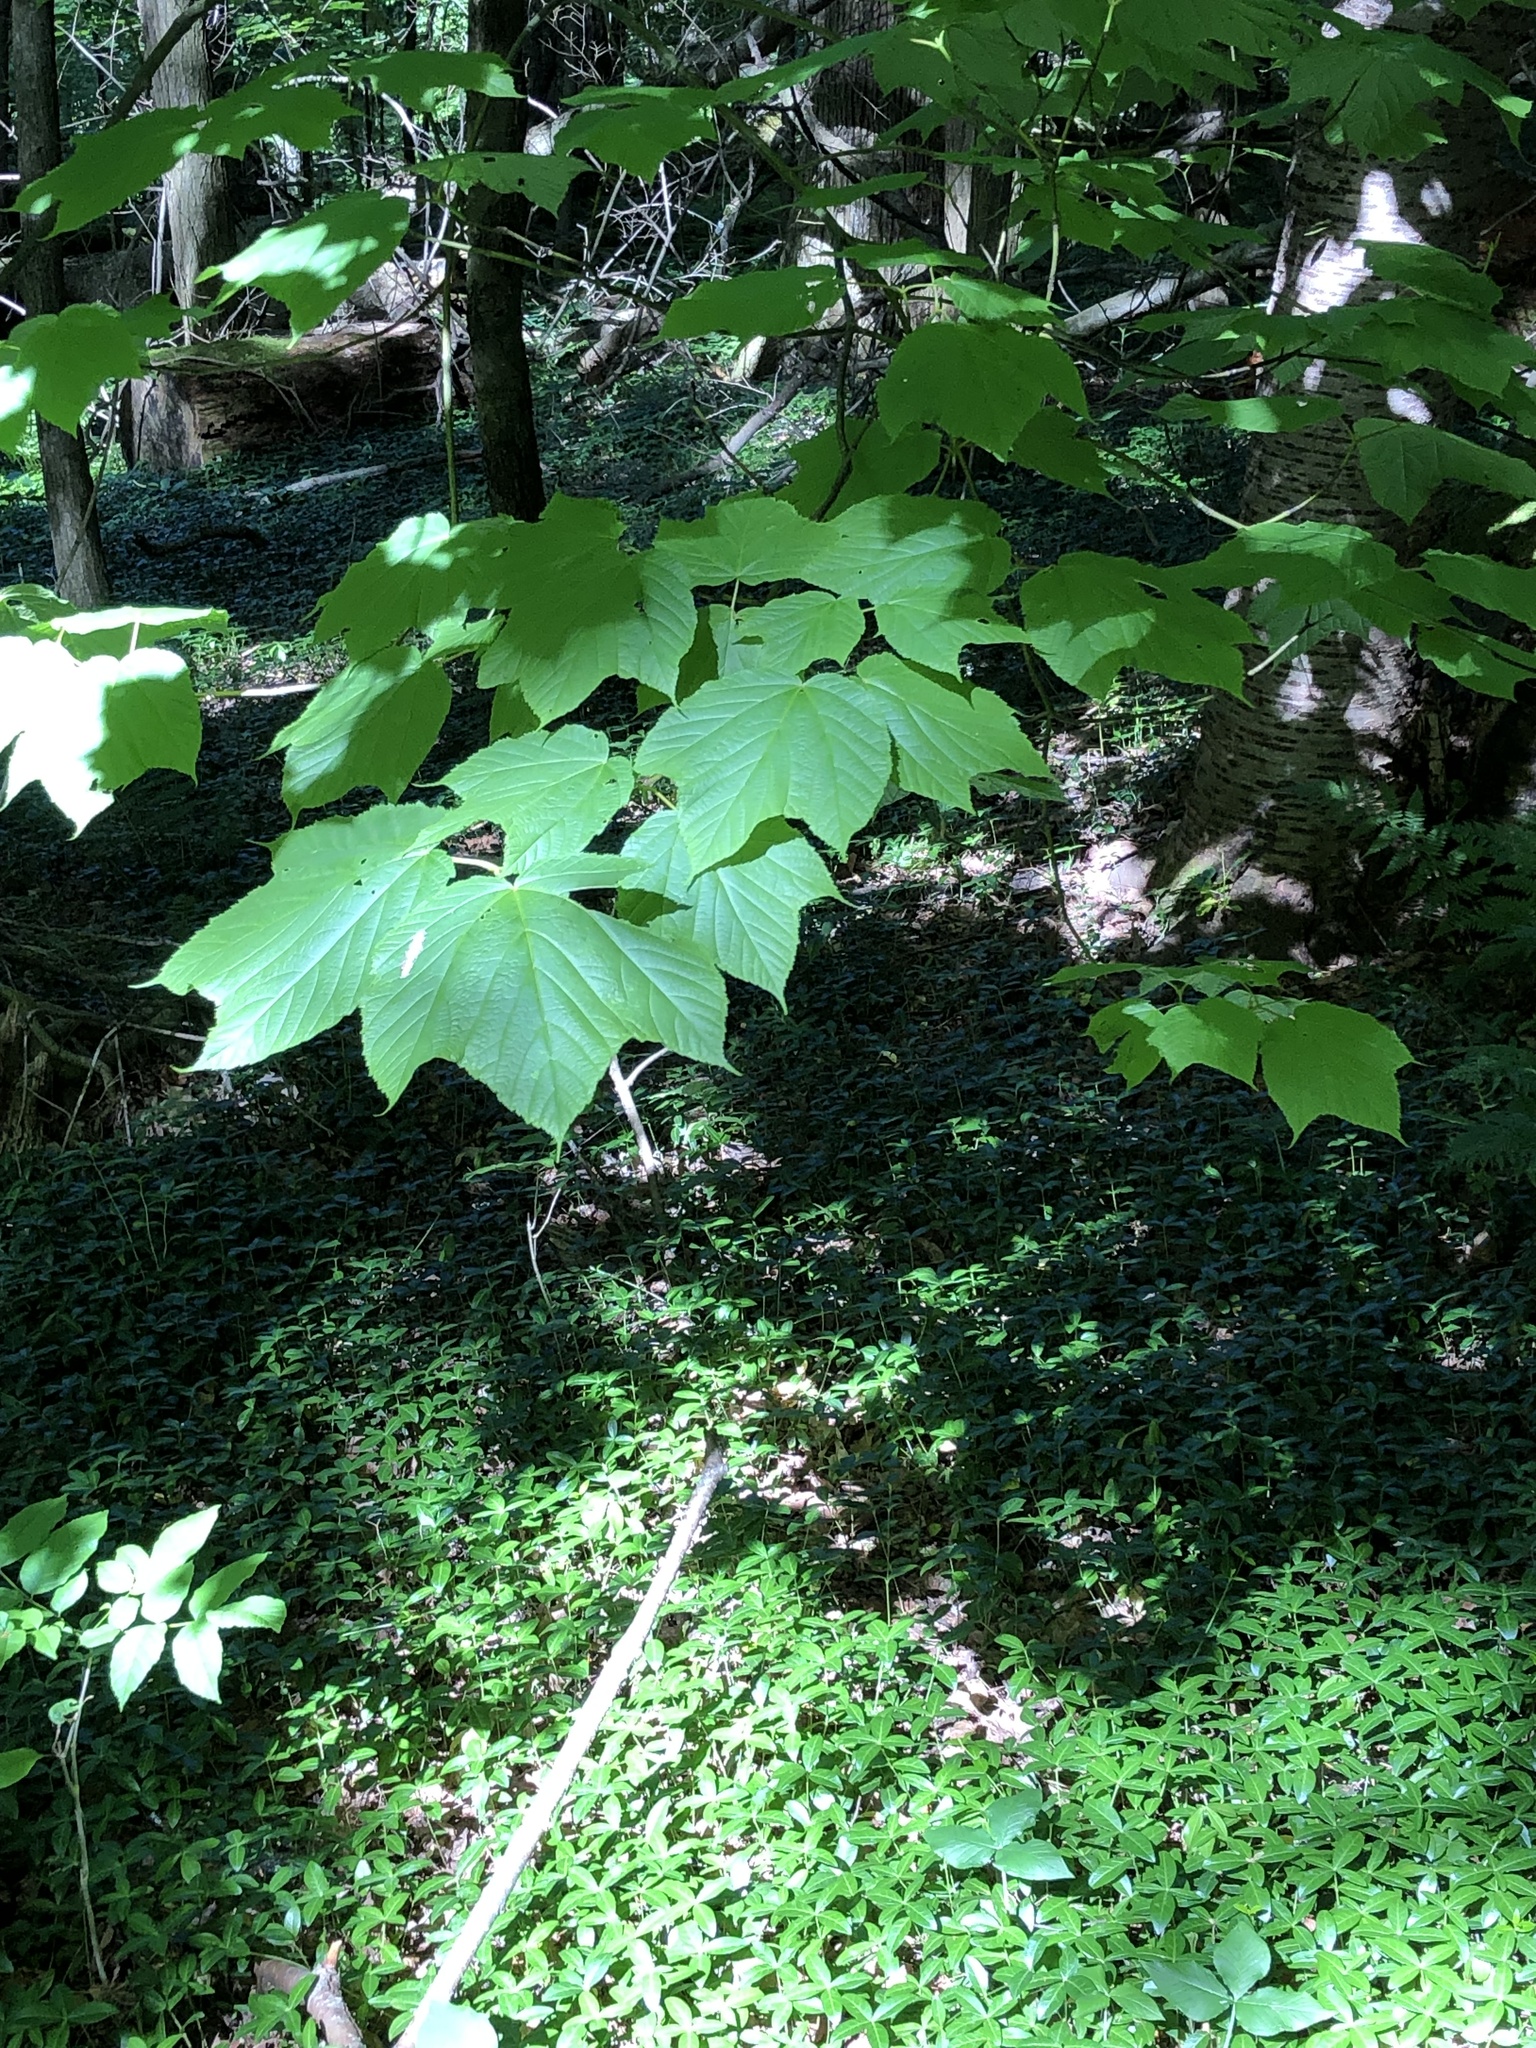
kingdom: Plantae
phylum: Tracheophyta
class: Magnoliopsida
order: Sapindales
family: Sapindaceae
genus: Acer
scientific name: Acer pensylvanicum
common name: Moosewood
